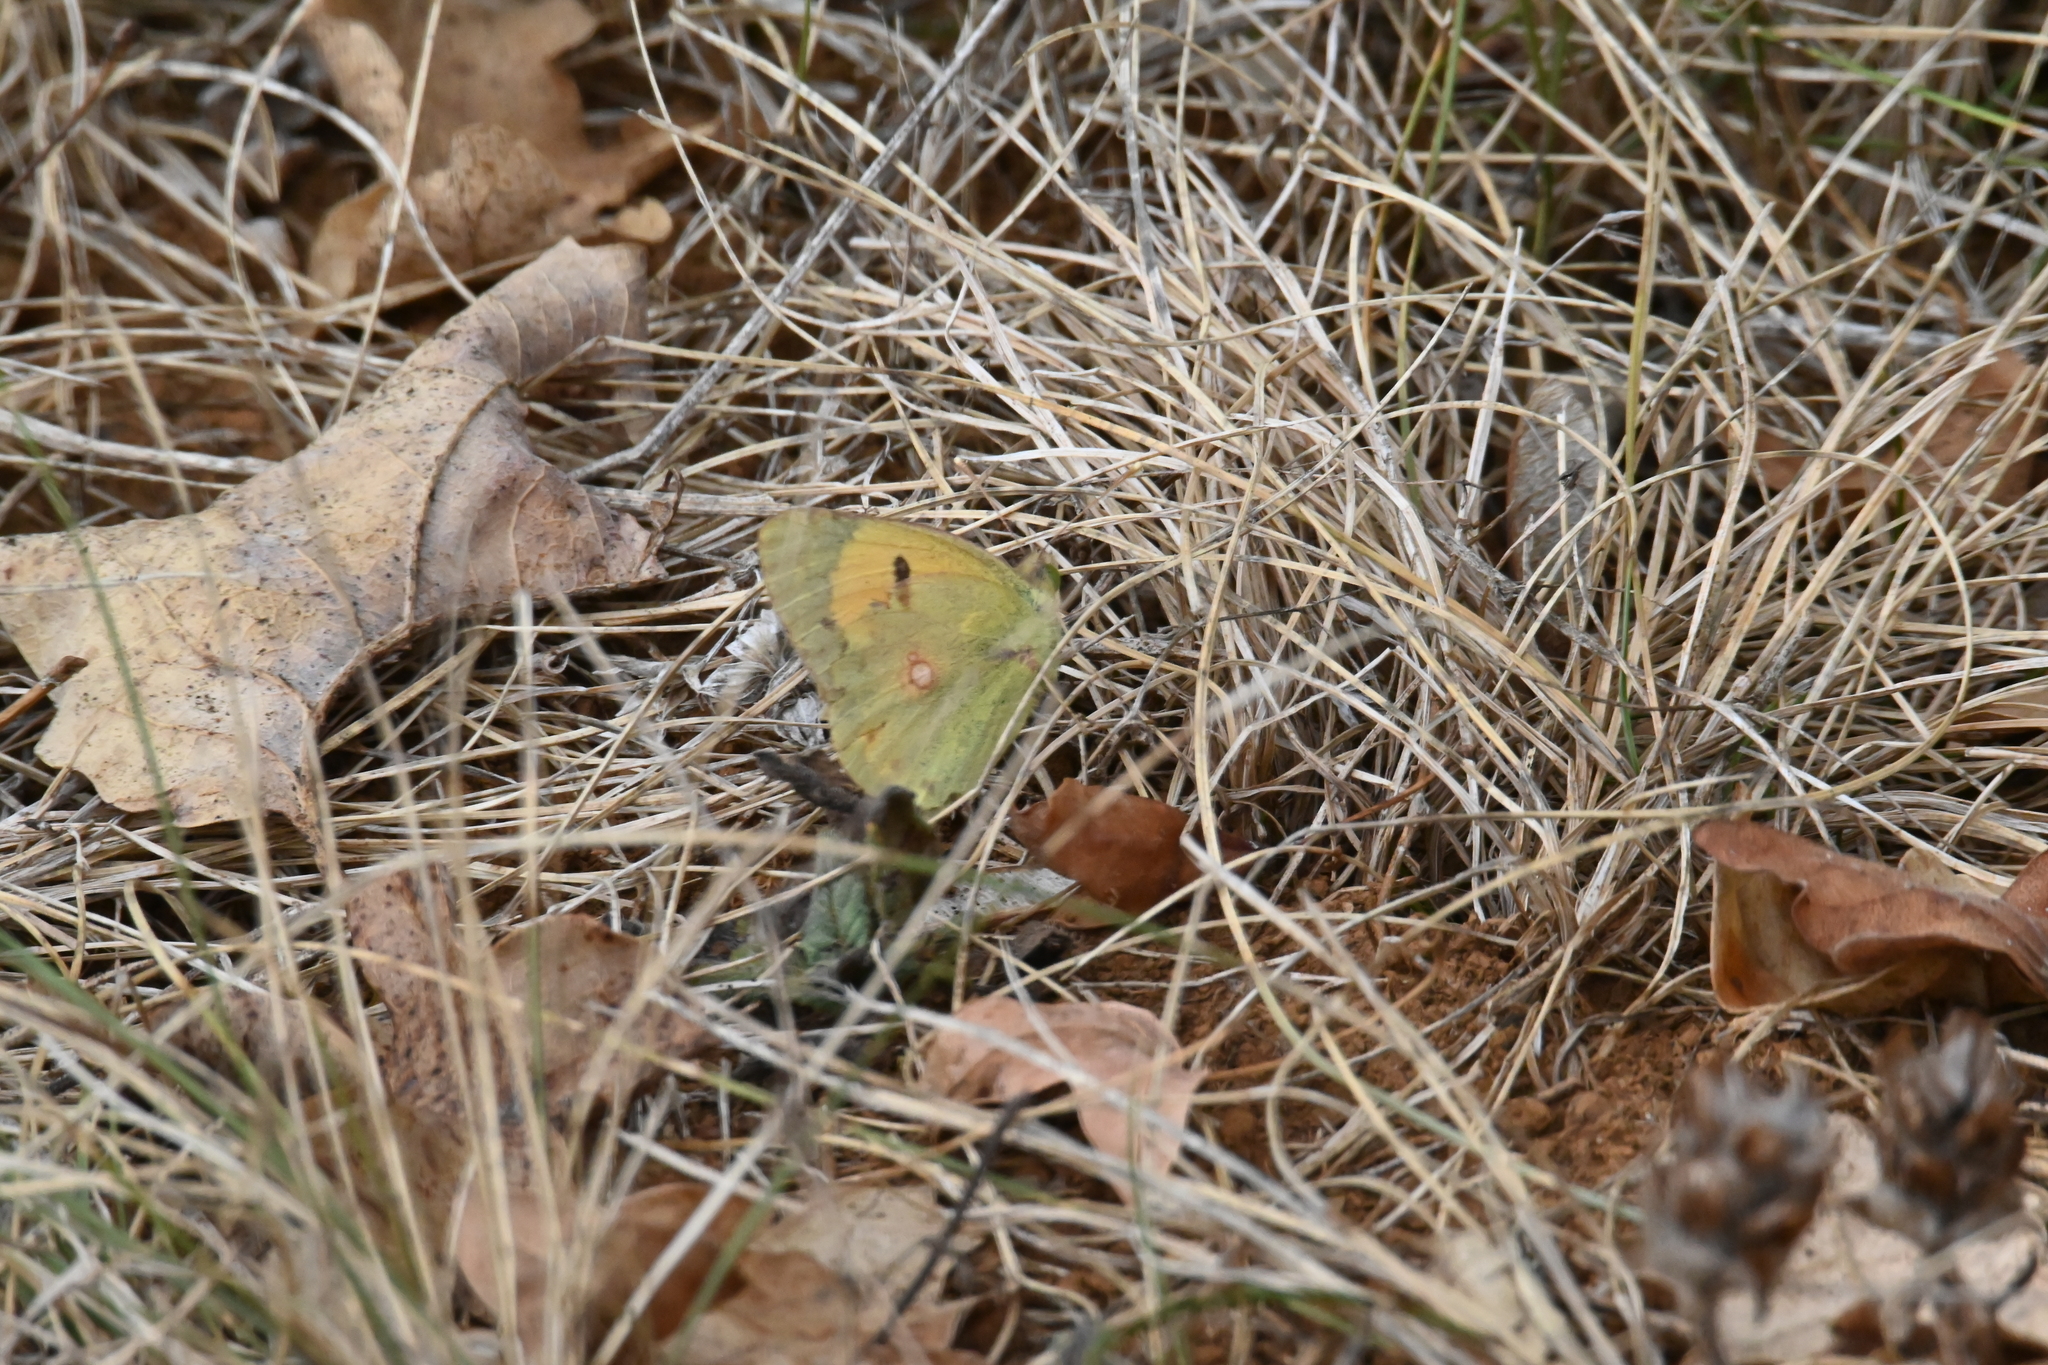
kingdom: Animalia
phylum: Arthropoda
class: Insecta
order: Lepidoptera
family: Pieridae
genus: Colias
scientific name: Colias croceus
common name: Clouded yellow
